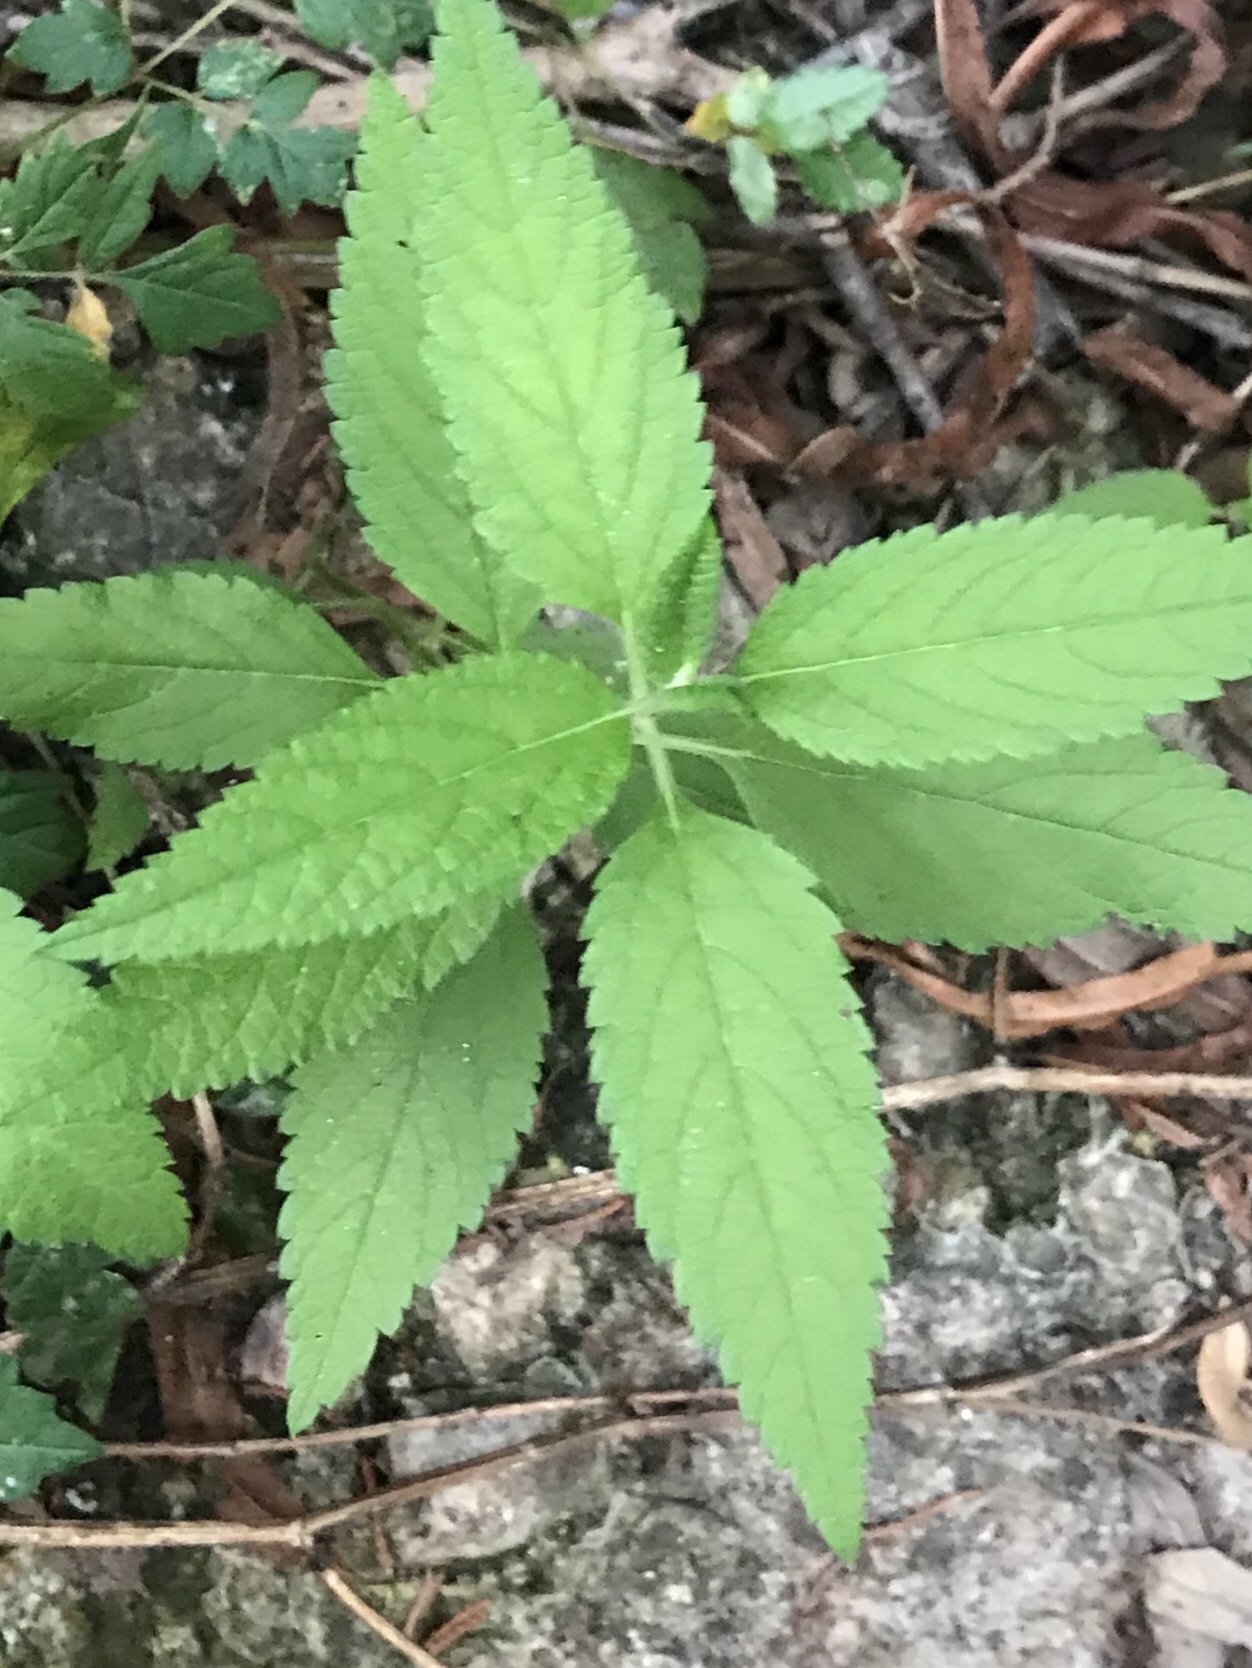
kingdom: Plantae
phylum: Tracheophyta
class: Magnoliopsida
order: Lamiales
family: Lamiaceae
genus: Teucrium
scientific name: Teucrium canadense
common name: American germander
